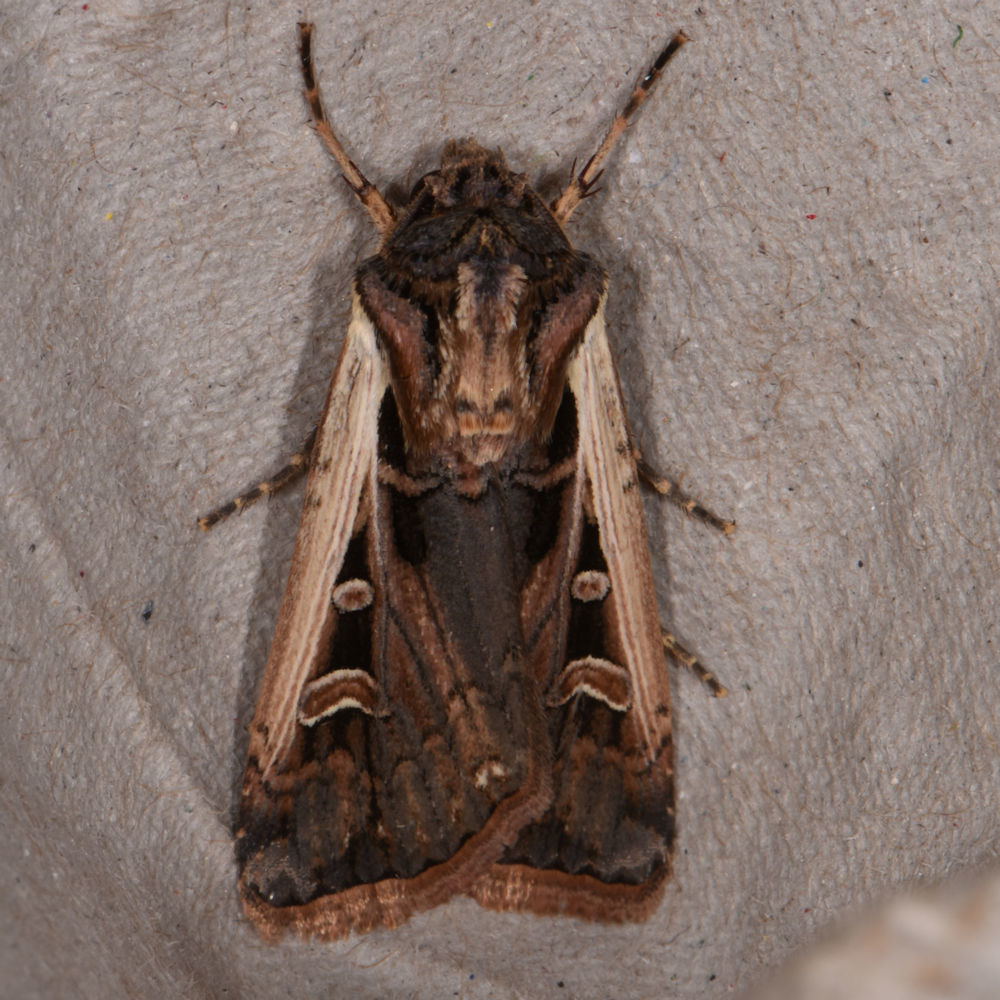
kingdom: Animalia
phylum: Arthropoda
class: Insecta
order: Lepidoptera
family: Noctuidae
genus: Striacosta
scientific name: Striacosta albicosta
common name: Western bean cutworm moth
